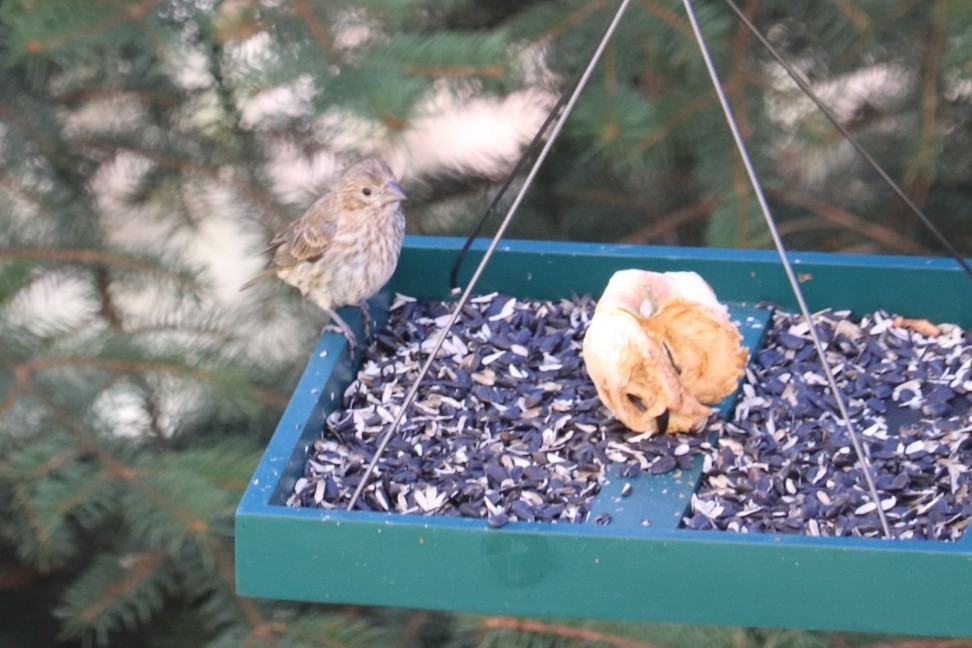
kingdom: Animalia
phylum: Chordata
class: Aves
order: Passeriformes
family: Fringillidae
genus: Haemorhous
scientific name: Haemorhous mexicanus
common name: House finch
